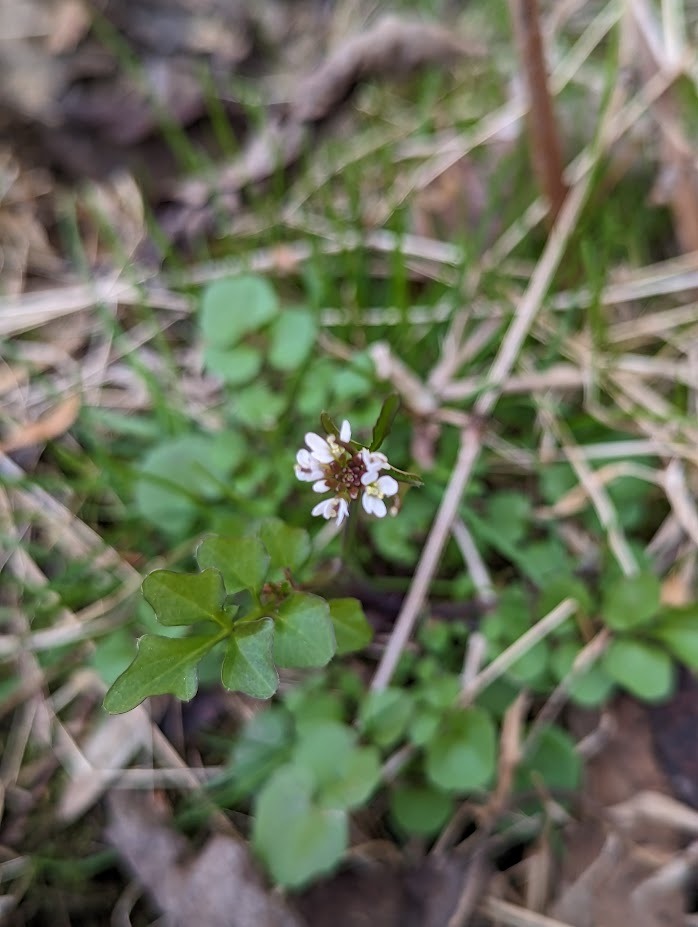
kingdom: Plantae
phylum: Tracheophyta
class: Magnoliopsida
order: Brassicales
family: Brassicaceae
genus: Cardamine
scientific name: Cardamine hirsuta
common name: Hairy bittercress
